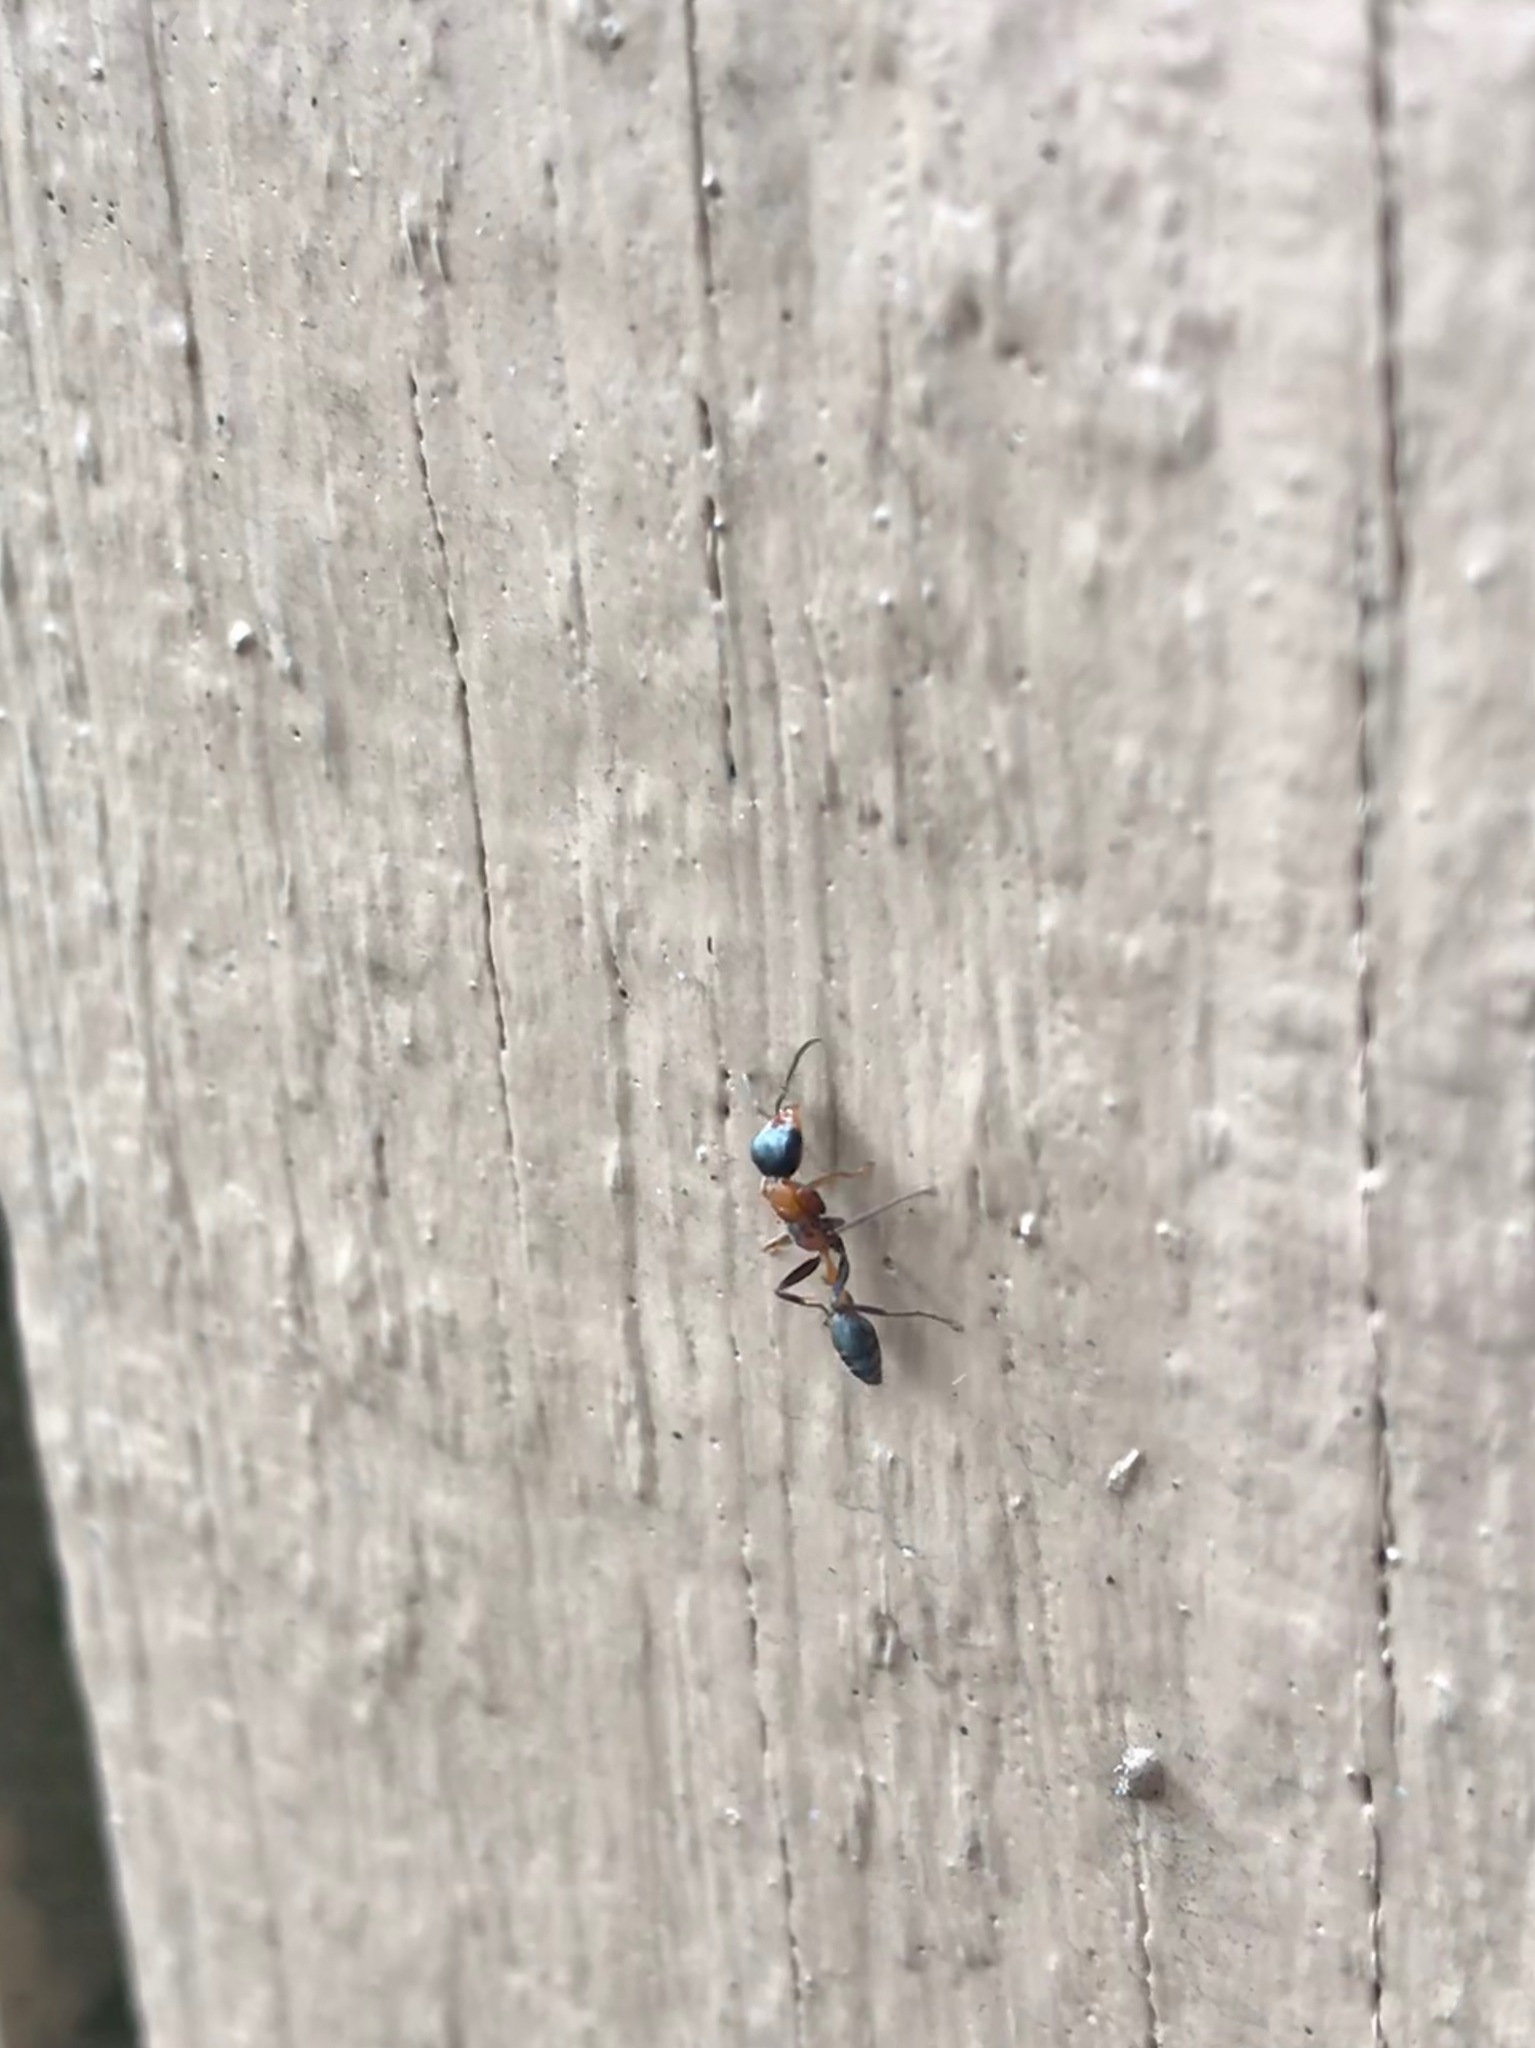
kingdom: Animalia
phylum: Arthropoda
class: Insecta
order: Hymenoptera
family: Formicidae
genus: Pseudomyrmex
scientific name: Pseudomyrmex gracilis
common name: Graceful twig ant
